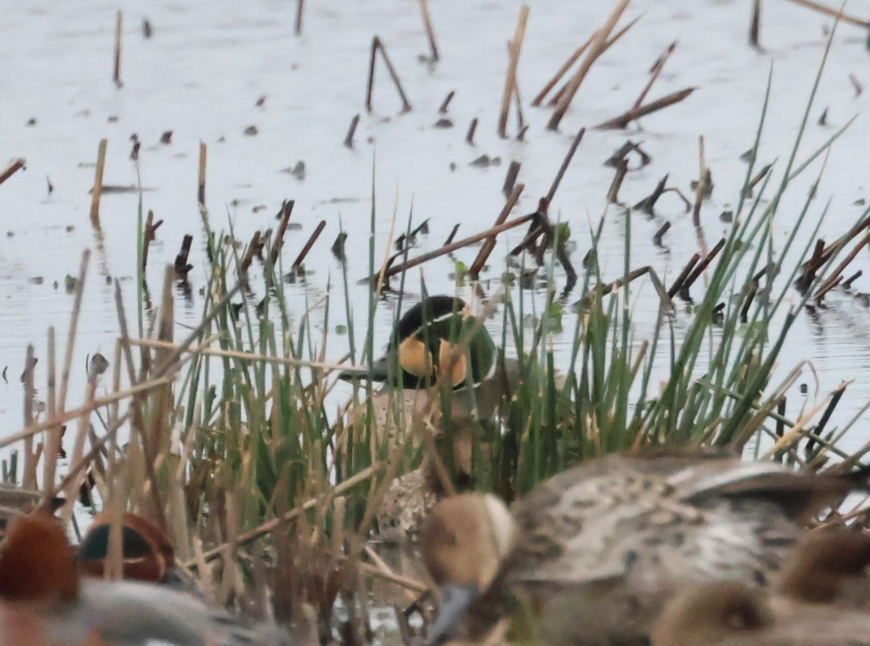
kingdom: Animalia
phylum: Chordata
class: Aves
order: Anseriformes
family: Anatidae
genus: Sibirionetta
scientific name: Sibirionetta formosa
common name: Baikal teal
